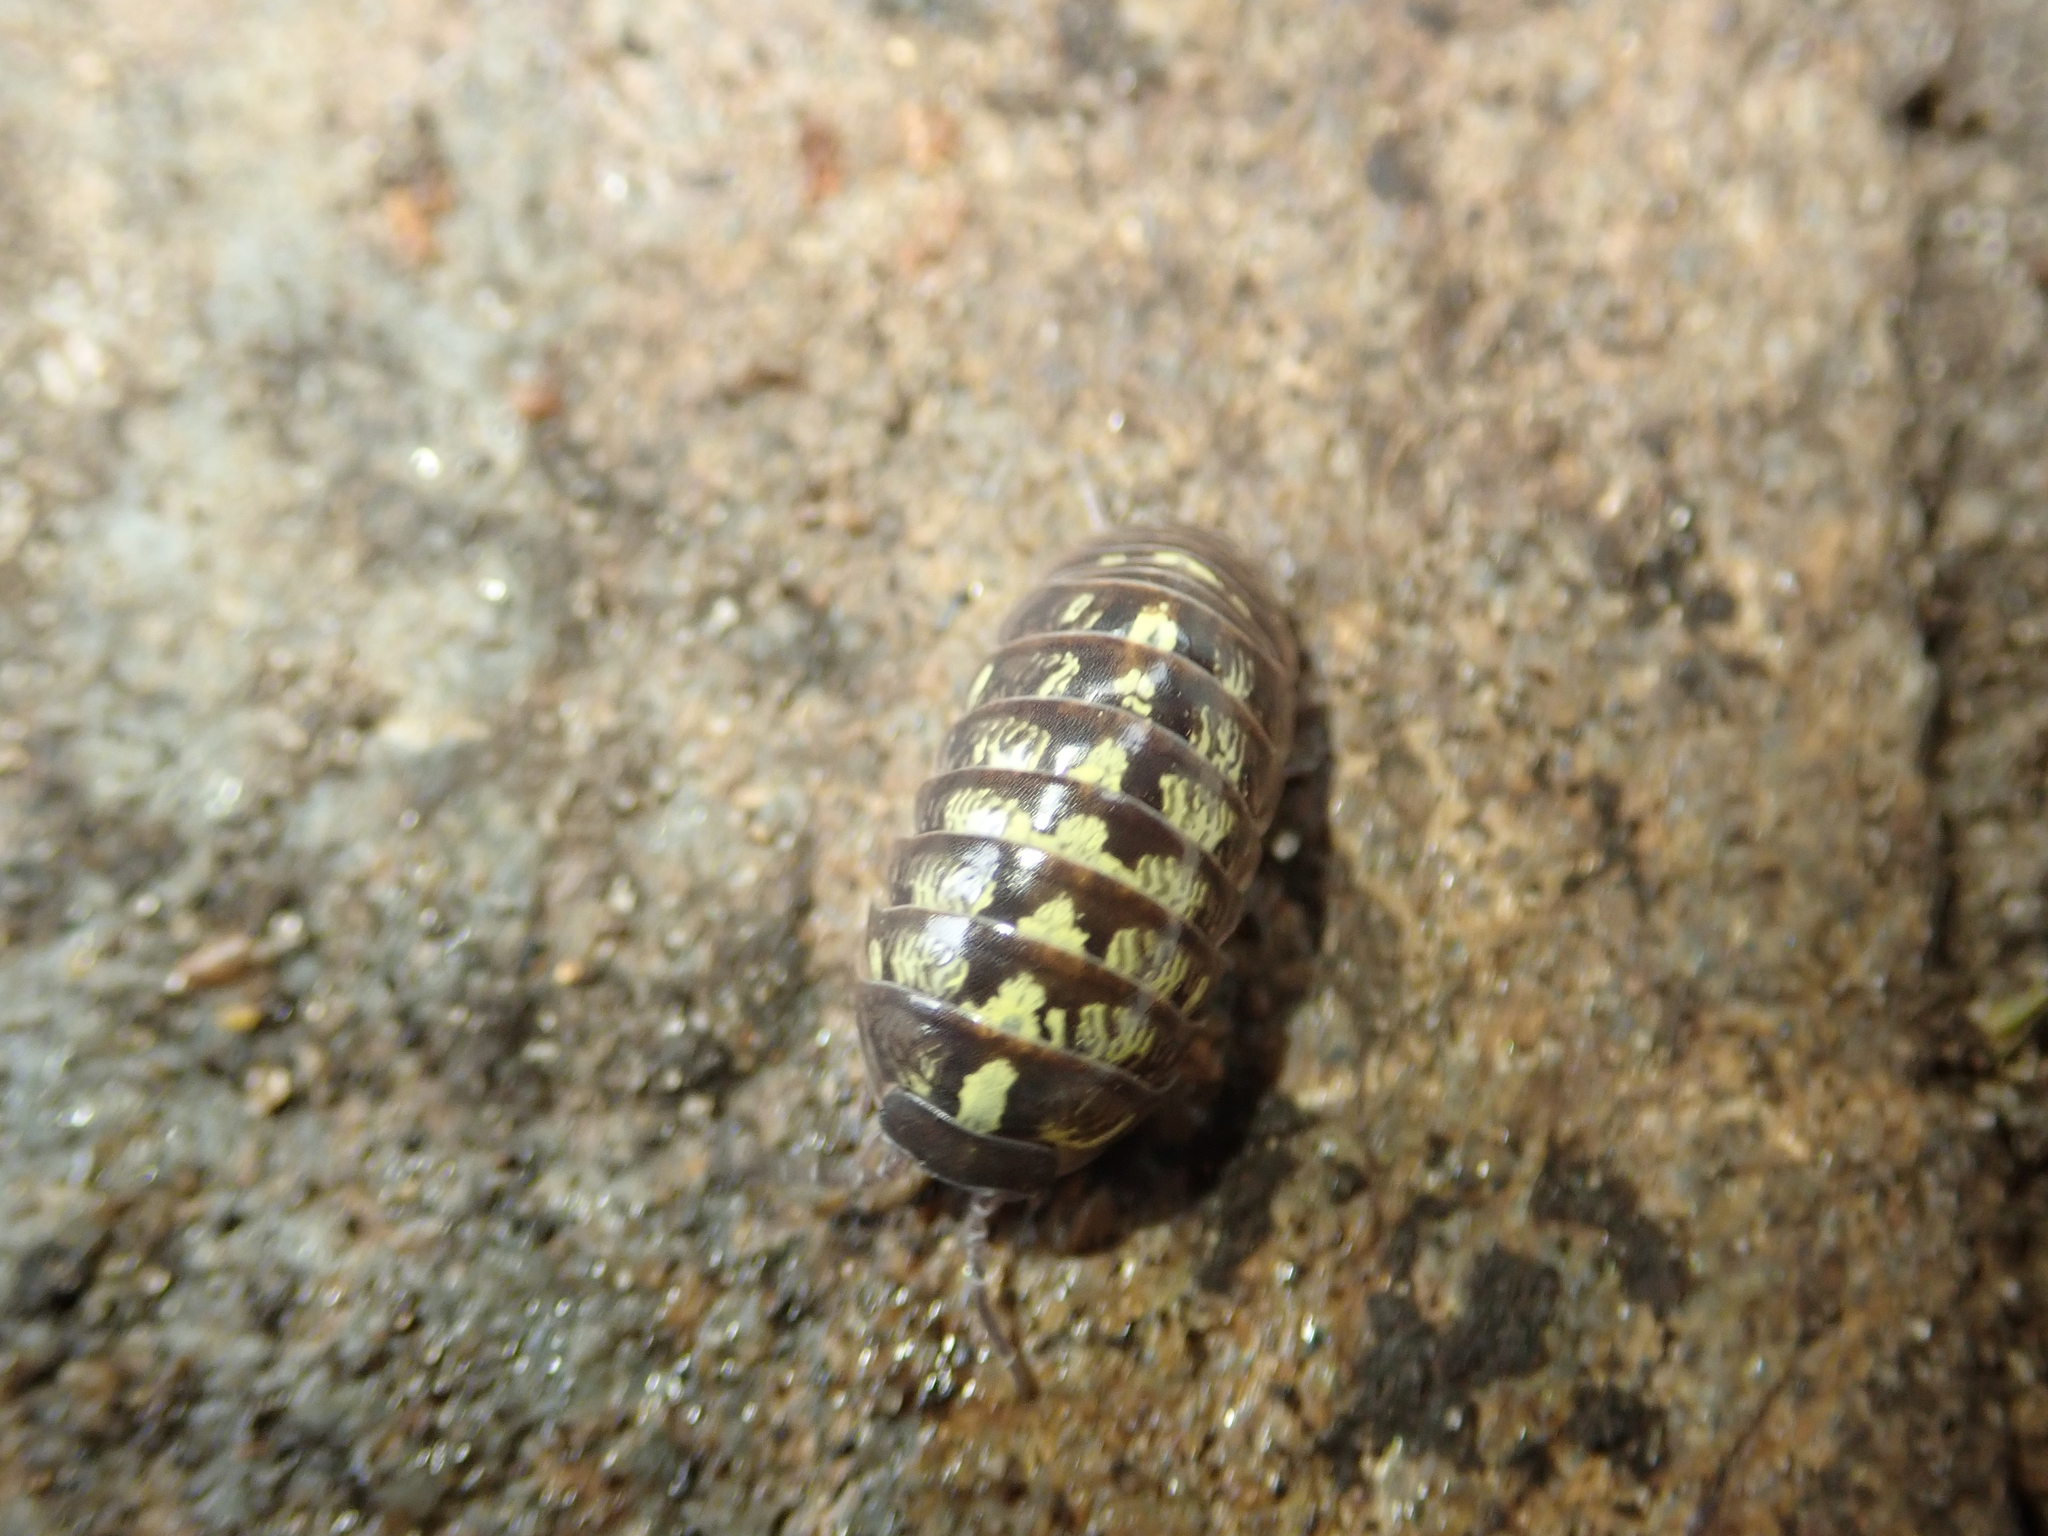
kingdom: Animalia
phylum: Arthropoda
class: Malacostraca
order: Isopoda
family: Armadillidiidae
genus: Armadillidium
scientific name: Armadillidium vulgare
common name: Common pill woodlouse
